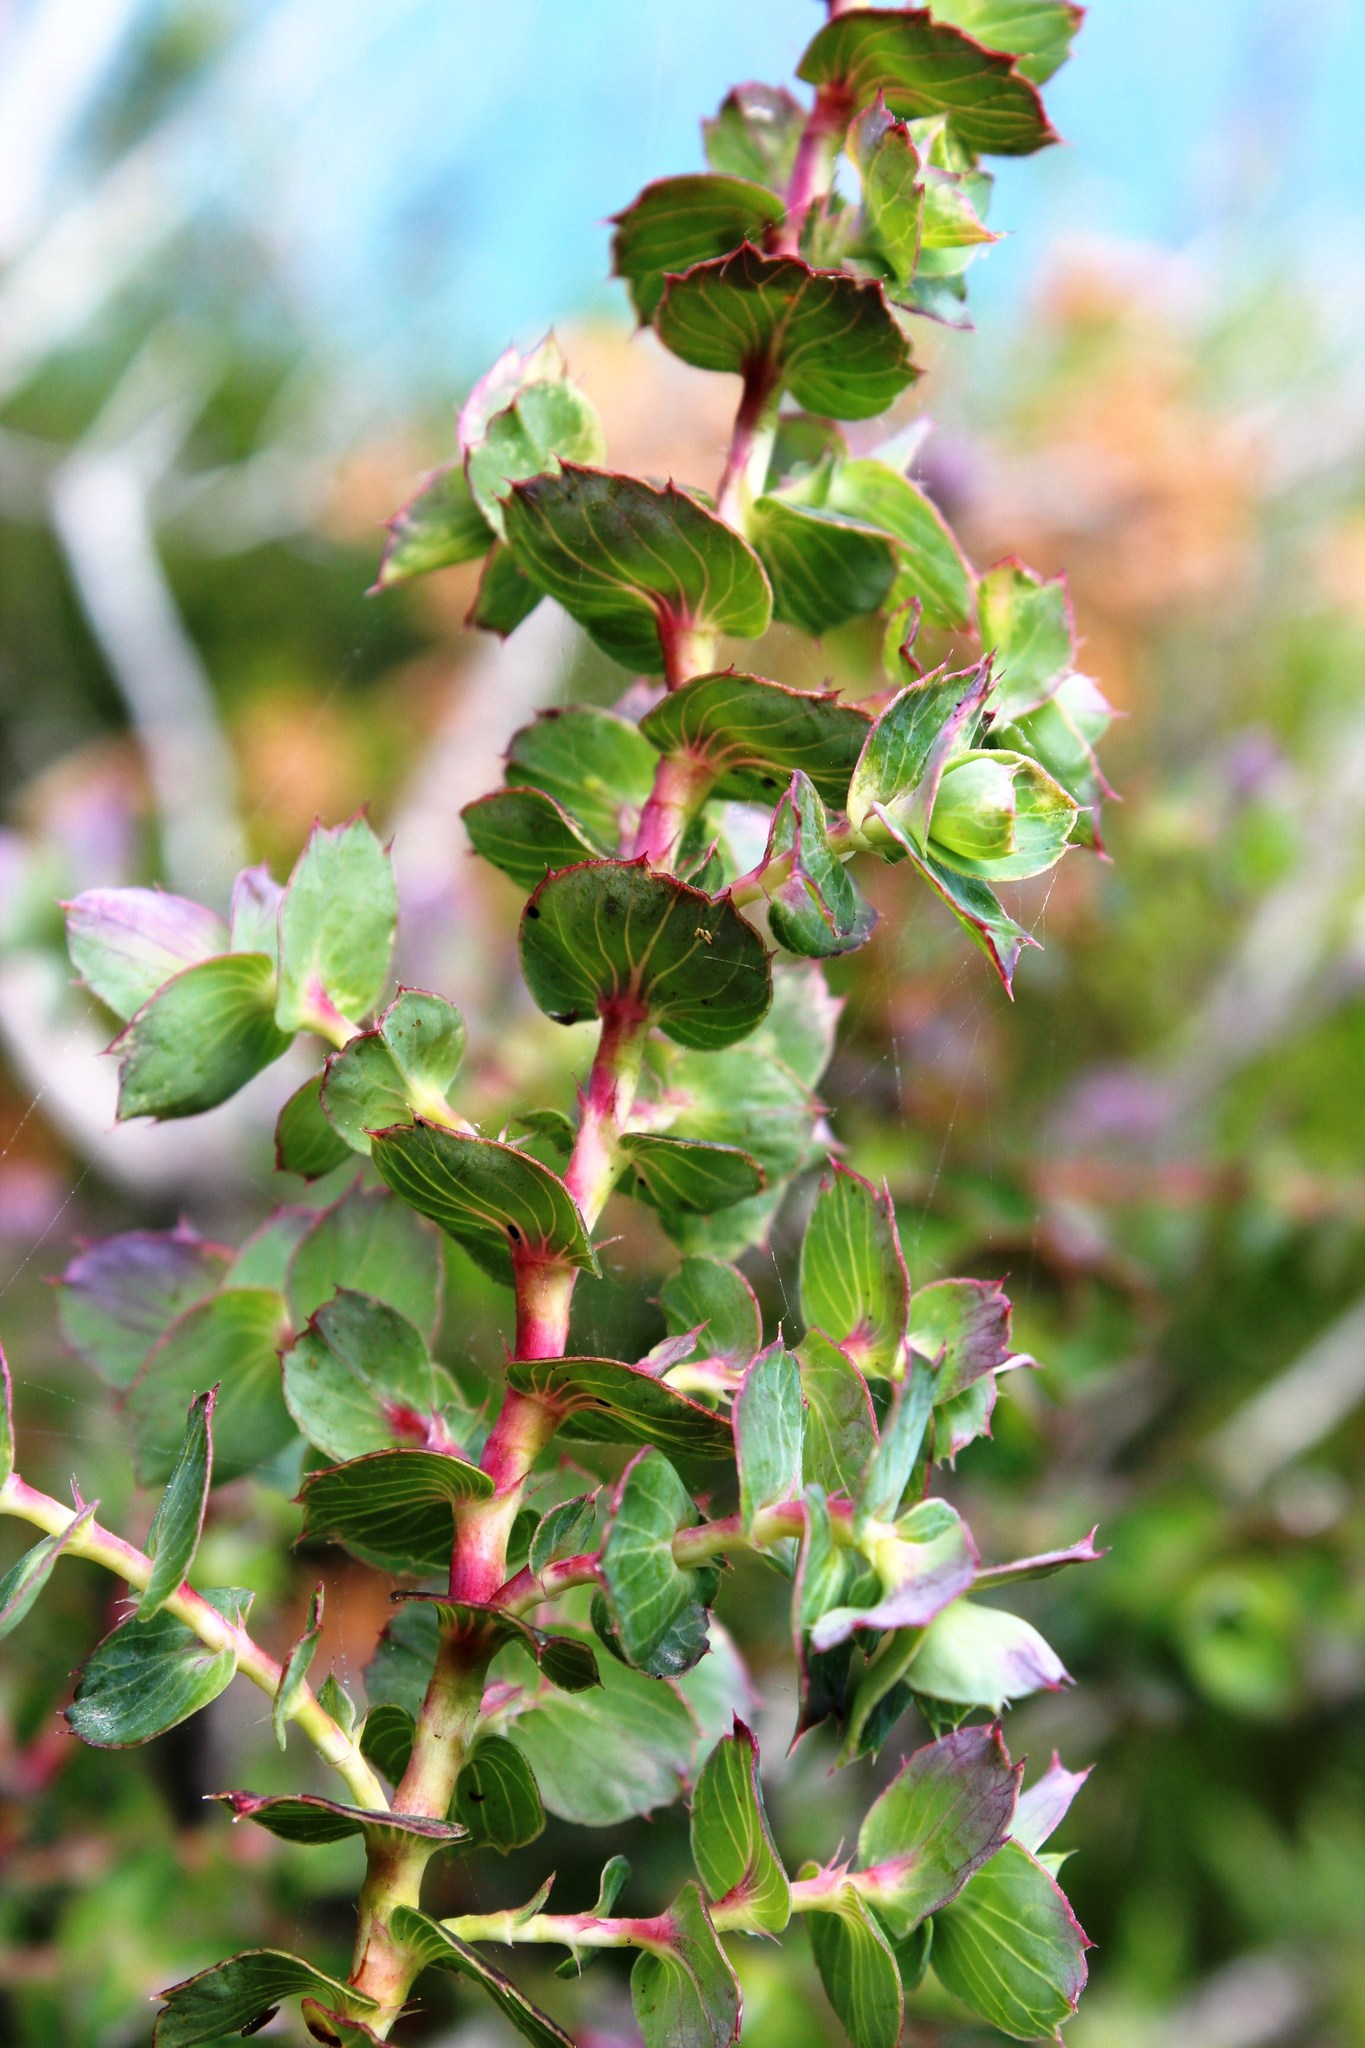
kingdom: Plantae
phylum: Tracheophyta
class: Magnoliopsida
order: Rosales
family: Rosaceae
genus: Cliffortia
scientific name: Cliffortia ilicifolia
